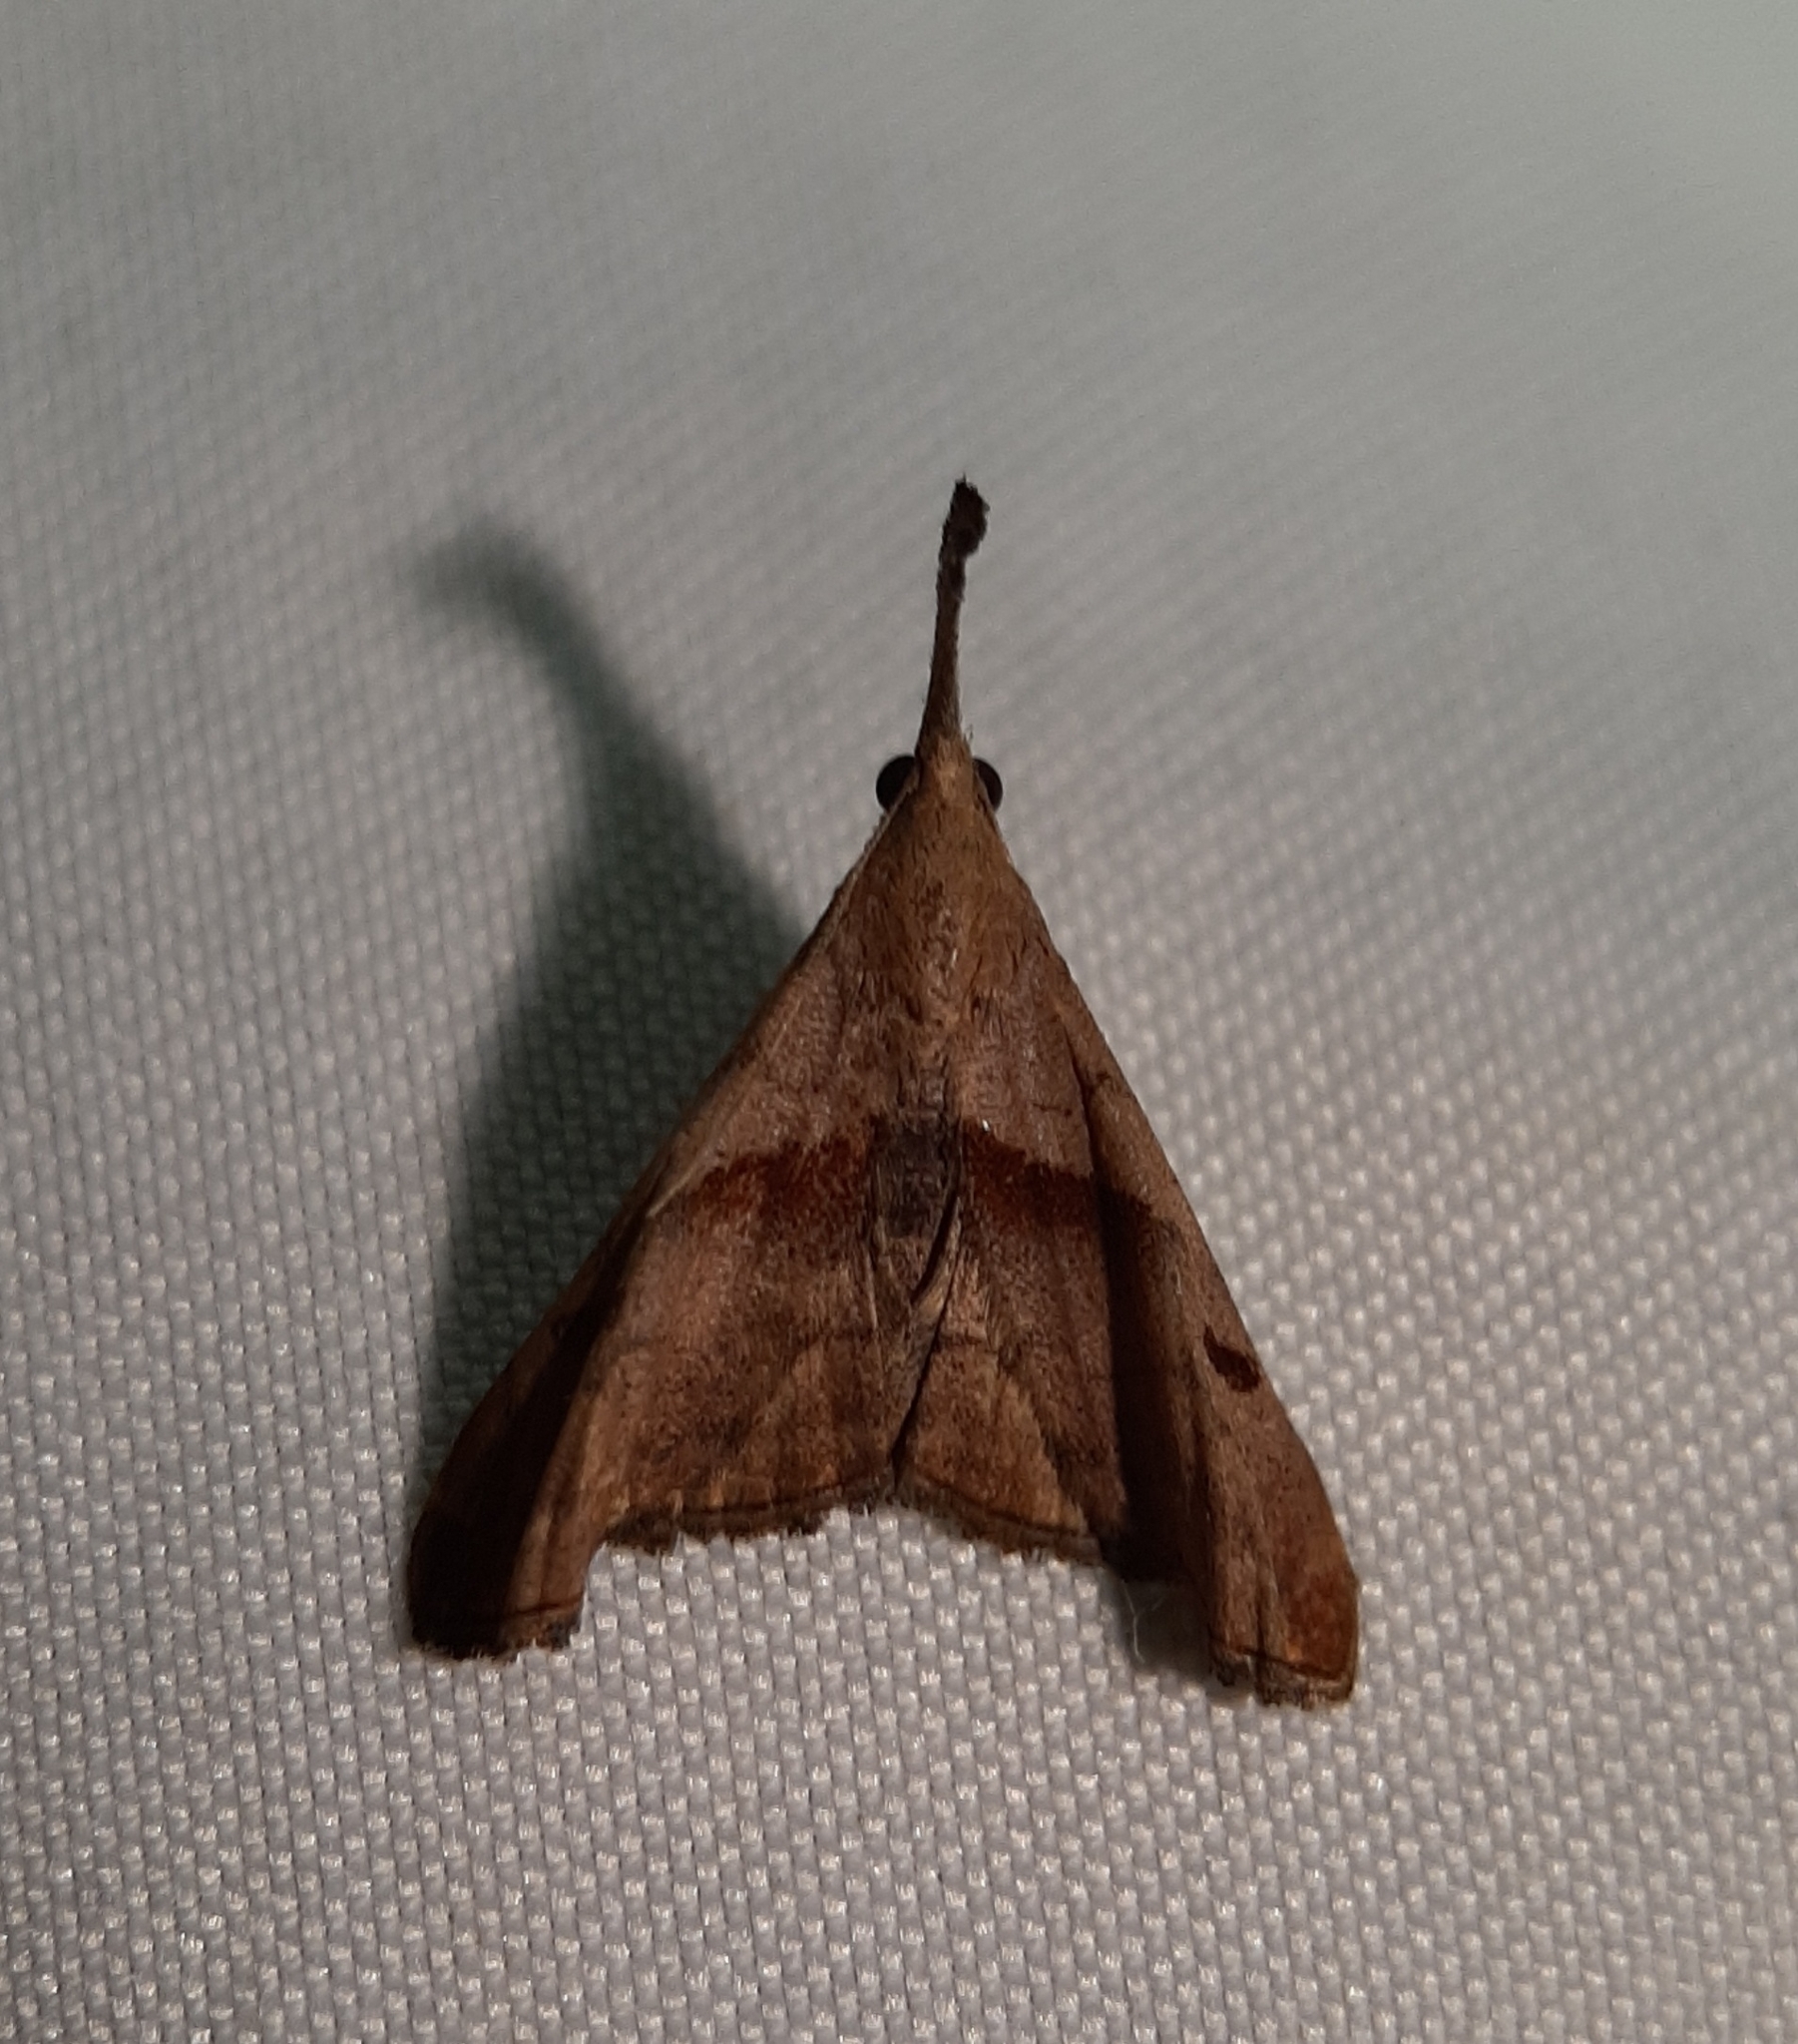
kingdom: Animalia
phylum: Arthropoda
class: Insecta
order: Lepidoptera
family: Erebidae
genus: Palthis
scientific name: Palthis angulalis
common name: Dark-spotted palthis moth
